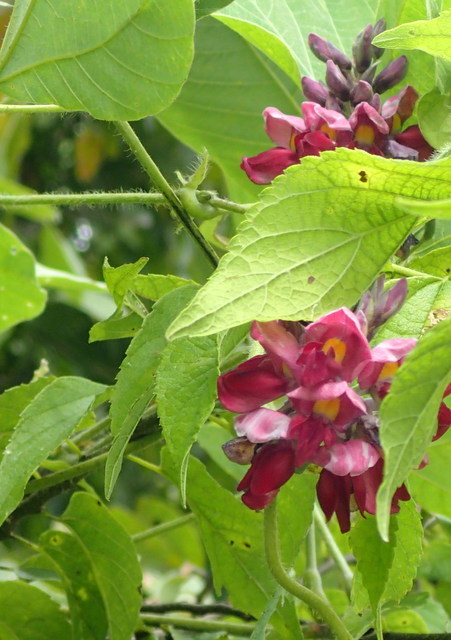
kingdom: Plantae
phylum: Tracheophyta
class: Magnoliopsida
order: Fabales
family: Fabaceae
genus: Pueraria
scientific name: Pueraria montana
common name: Kudzu
